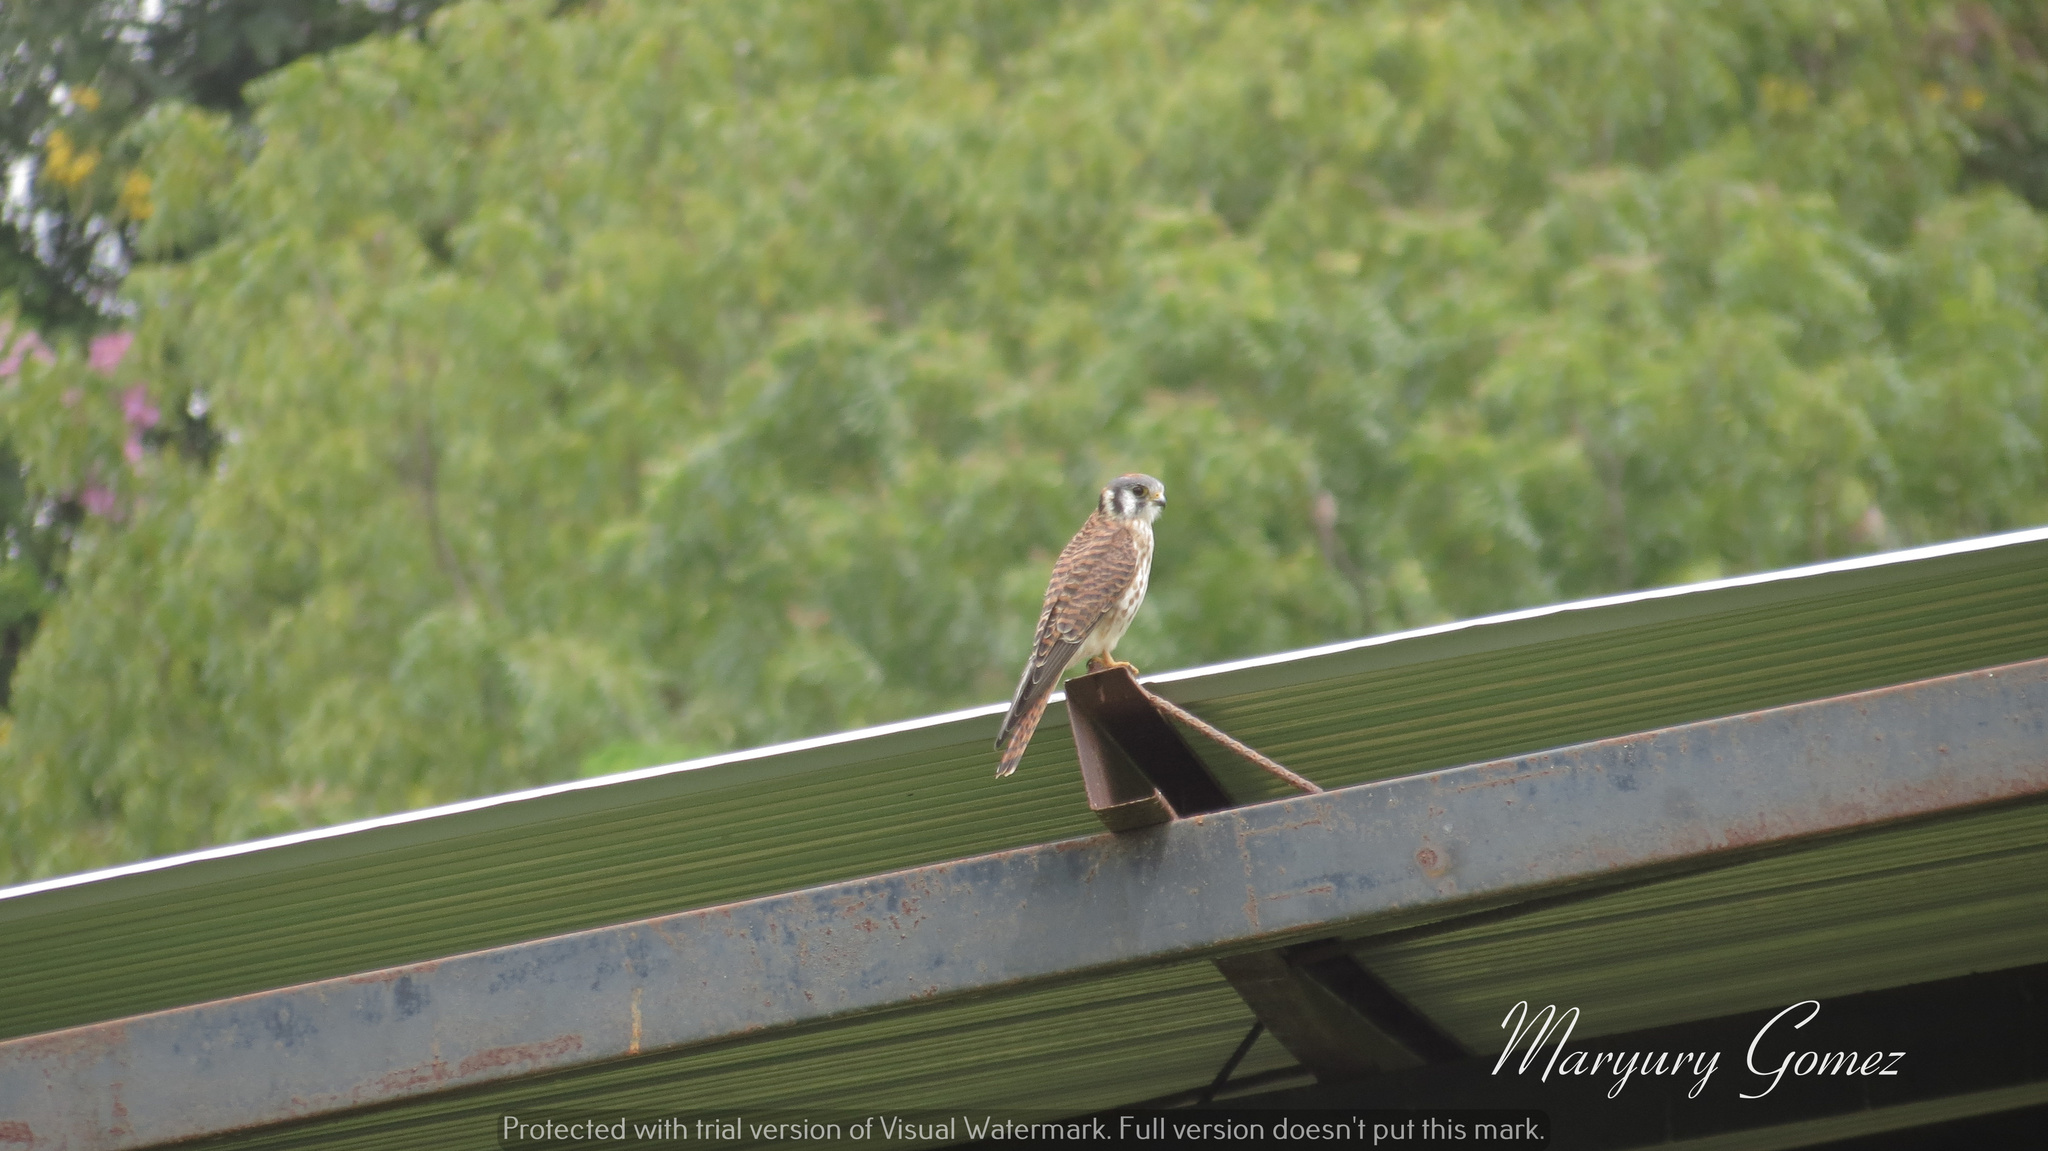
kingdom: Animalia
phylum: Chordata
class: Aves
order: Falconiformes
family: Falconidae
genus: Falco
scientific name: Falco sparverius
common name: American kestrel
